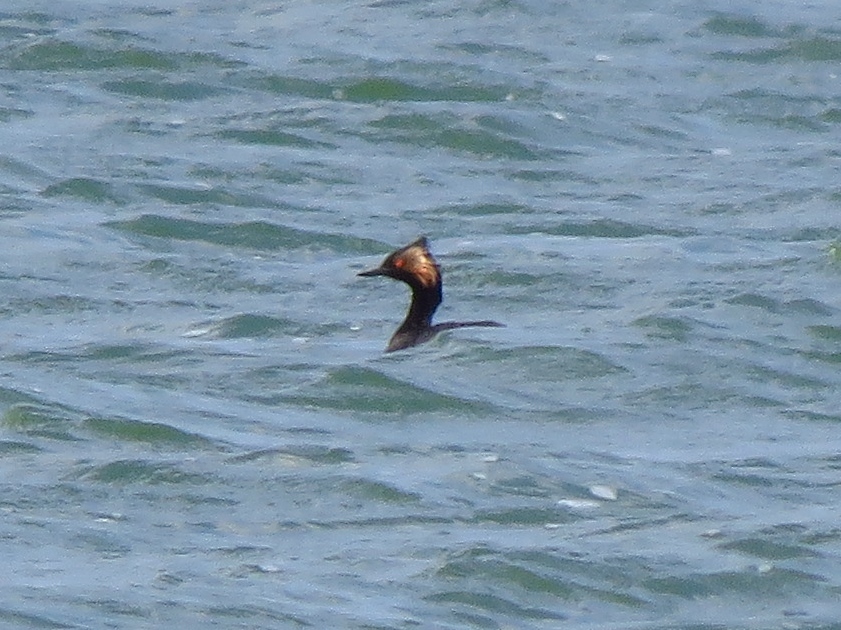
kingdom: Animalia
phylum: Chordata
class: Aves
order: Podicipediformes
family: Podicipedidae
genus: Podiceps
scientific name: Podiceps nigricollis
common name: Black-necked grebe
